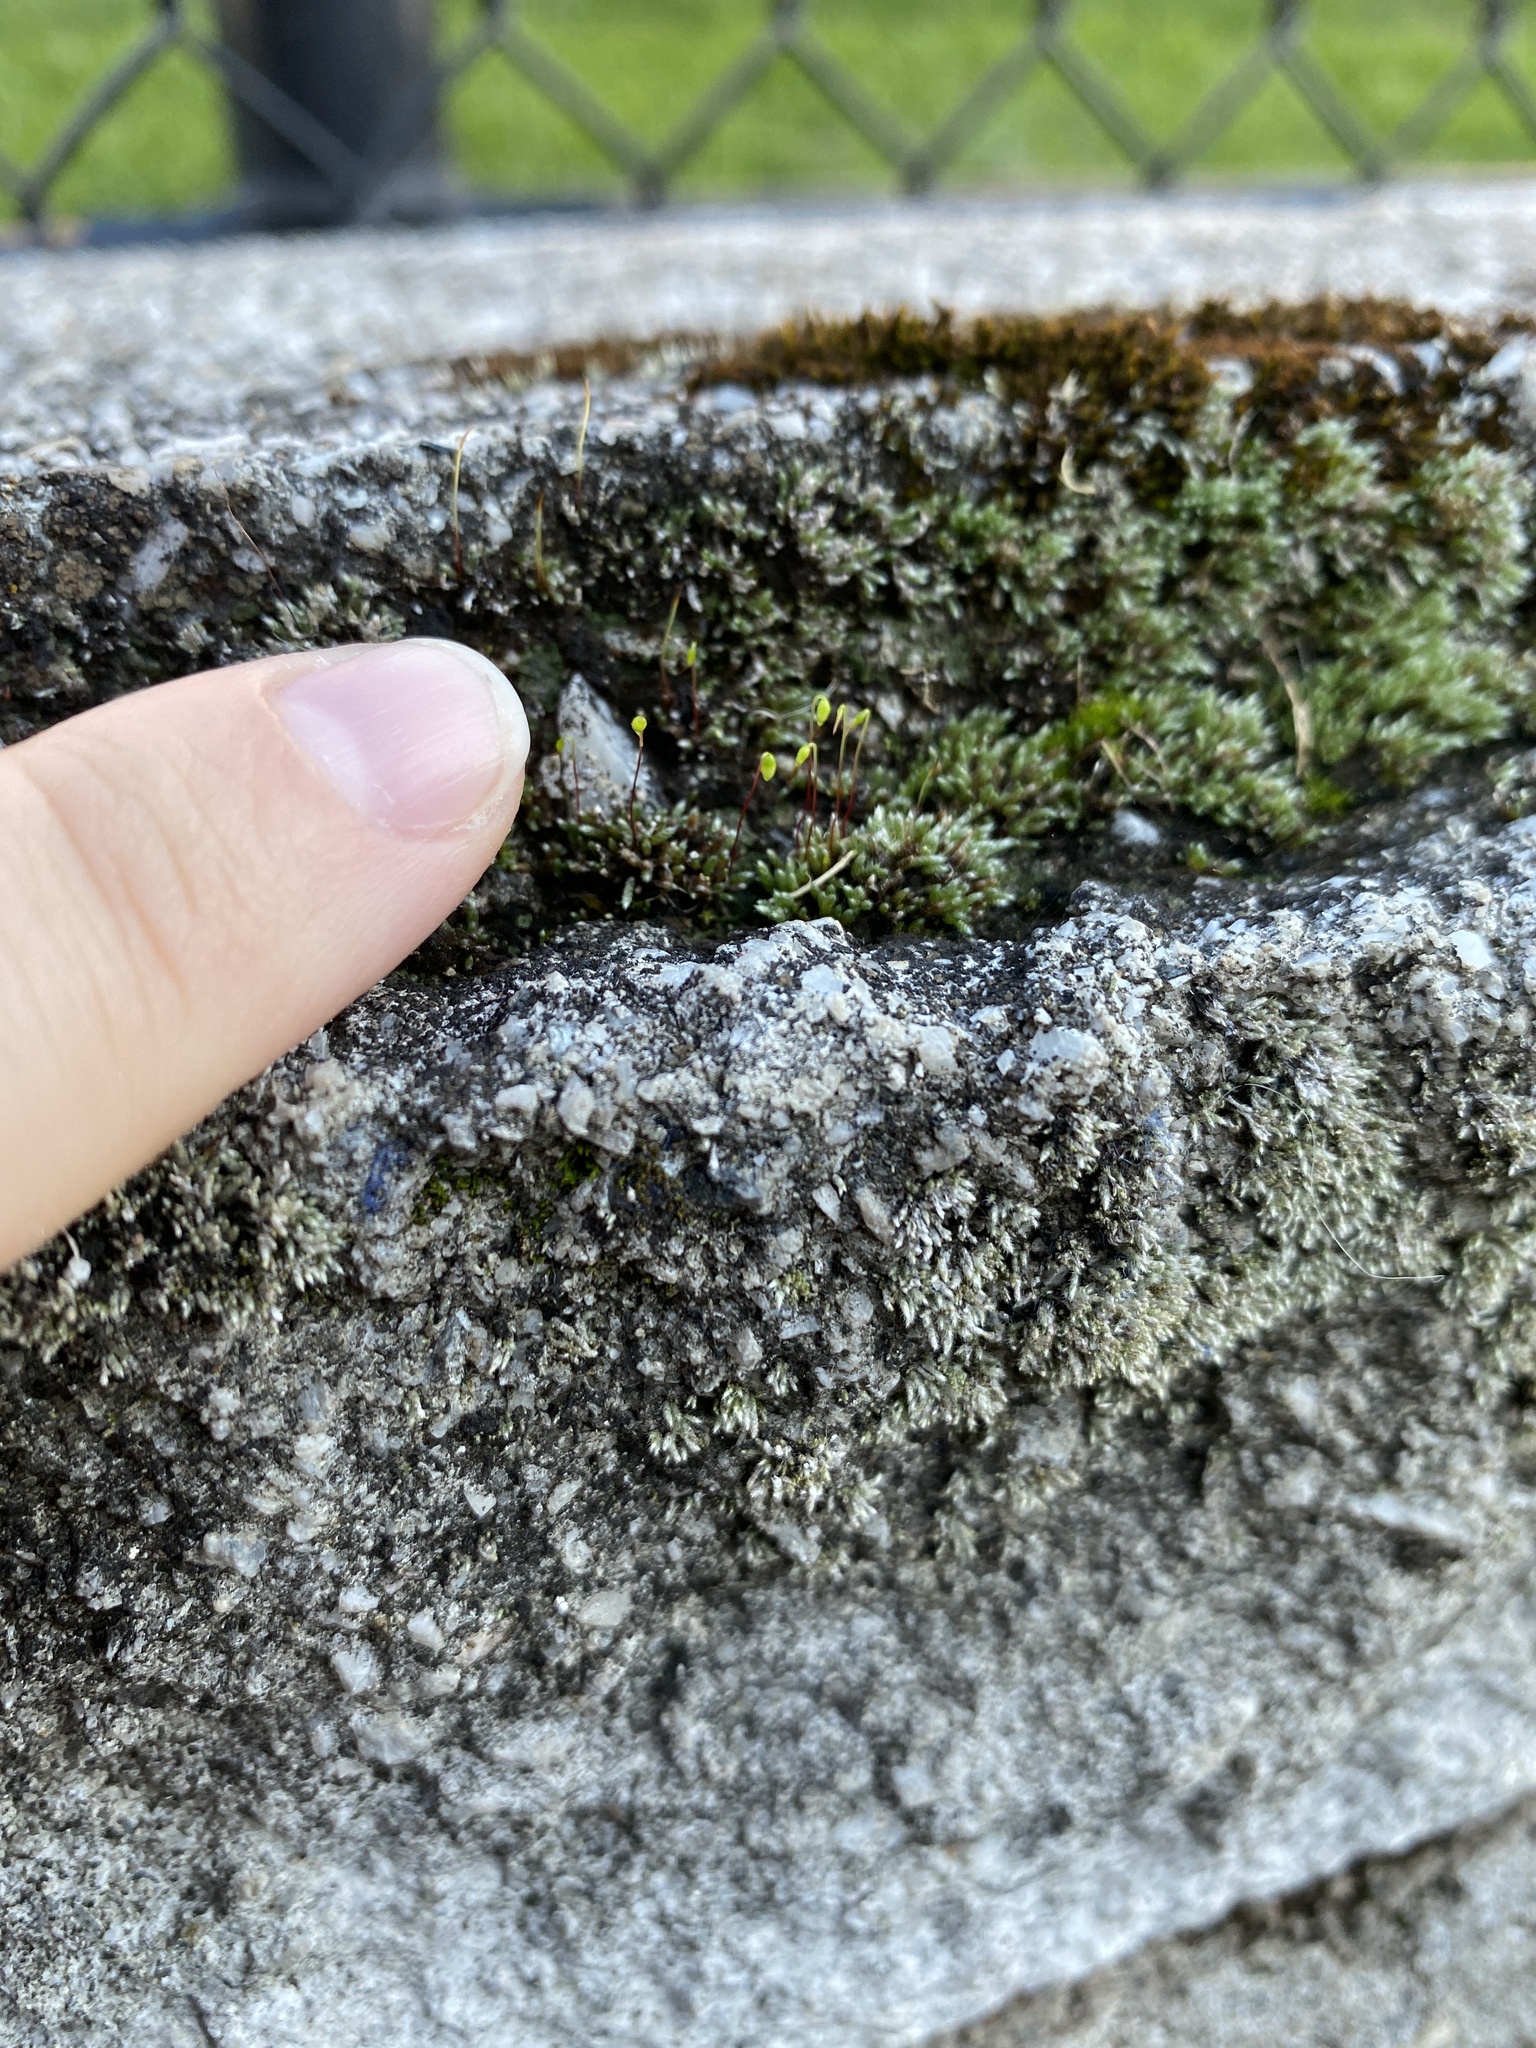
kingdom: Plantae
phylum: Bryophyta
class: Bryopsida
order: Bryales
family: Bryaceae
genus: Bryum
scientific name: Bryum argenteum
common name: Silver-moss
